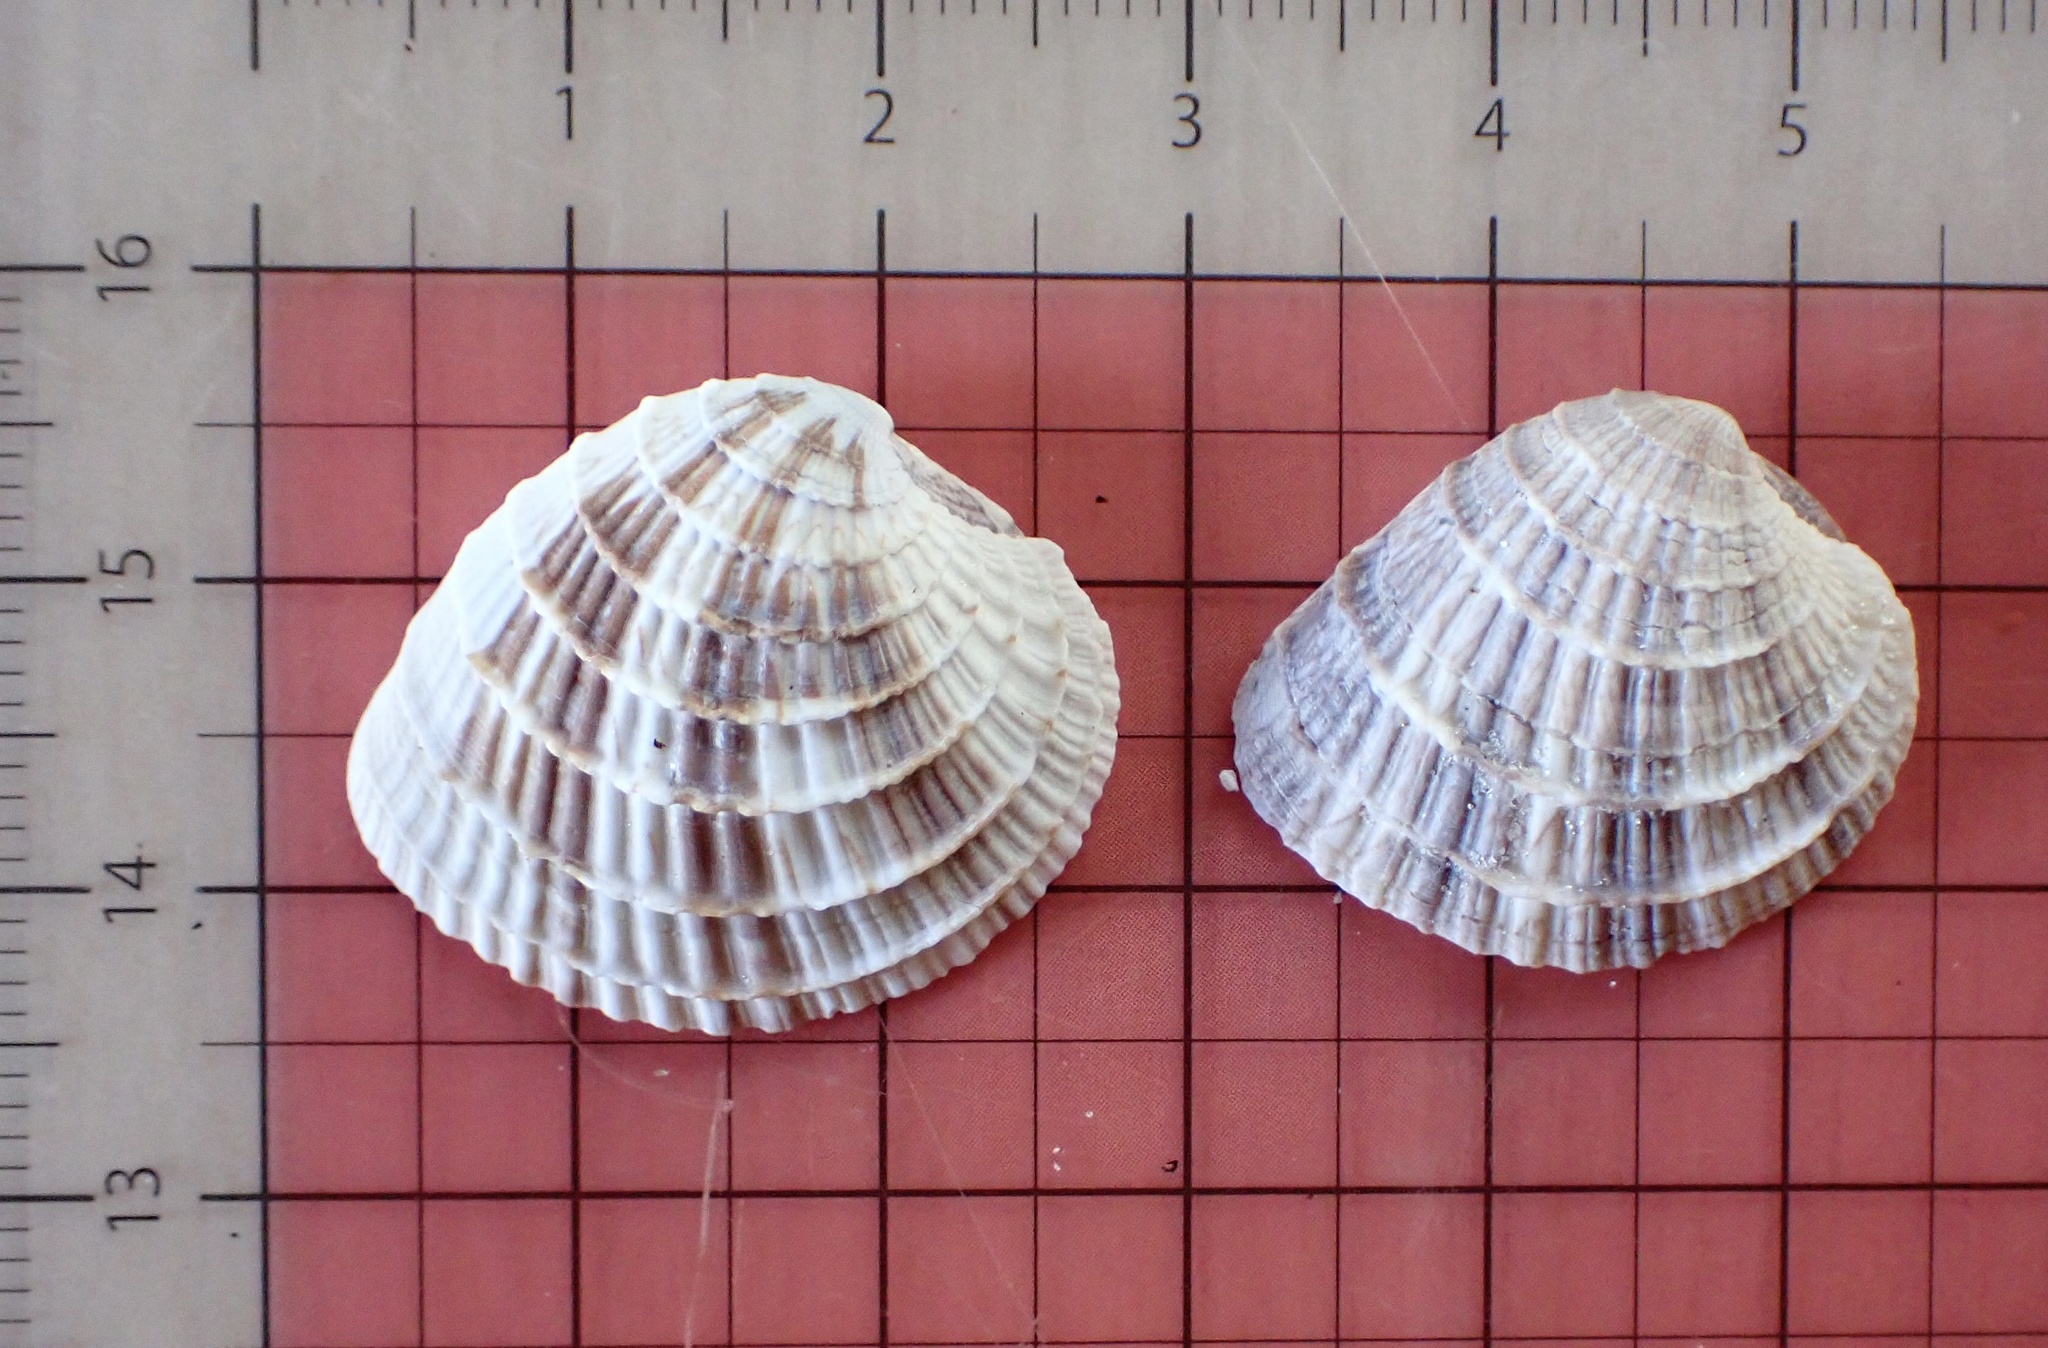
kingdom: Animalia
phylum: Mollusca
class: Bivalvia
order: Venerida
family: Veneridae
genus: Chione
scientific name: Chione elevata
